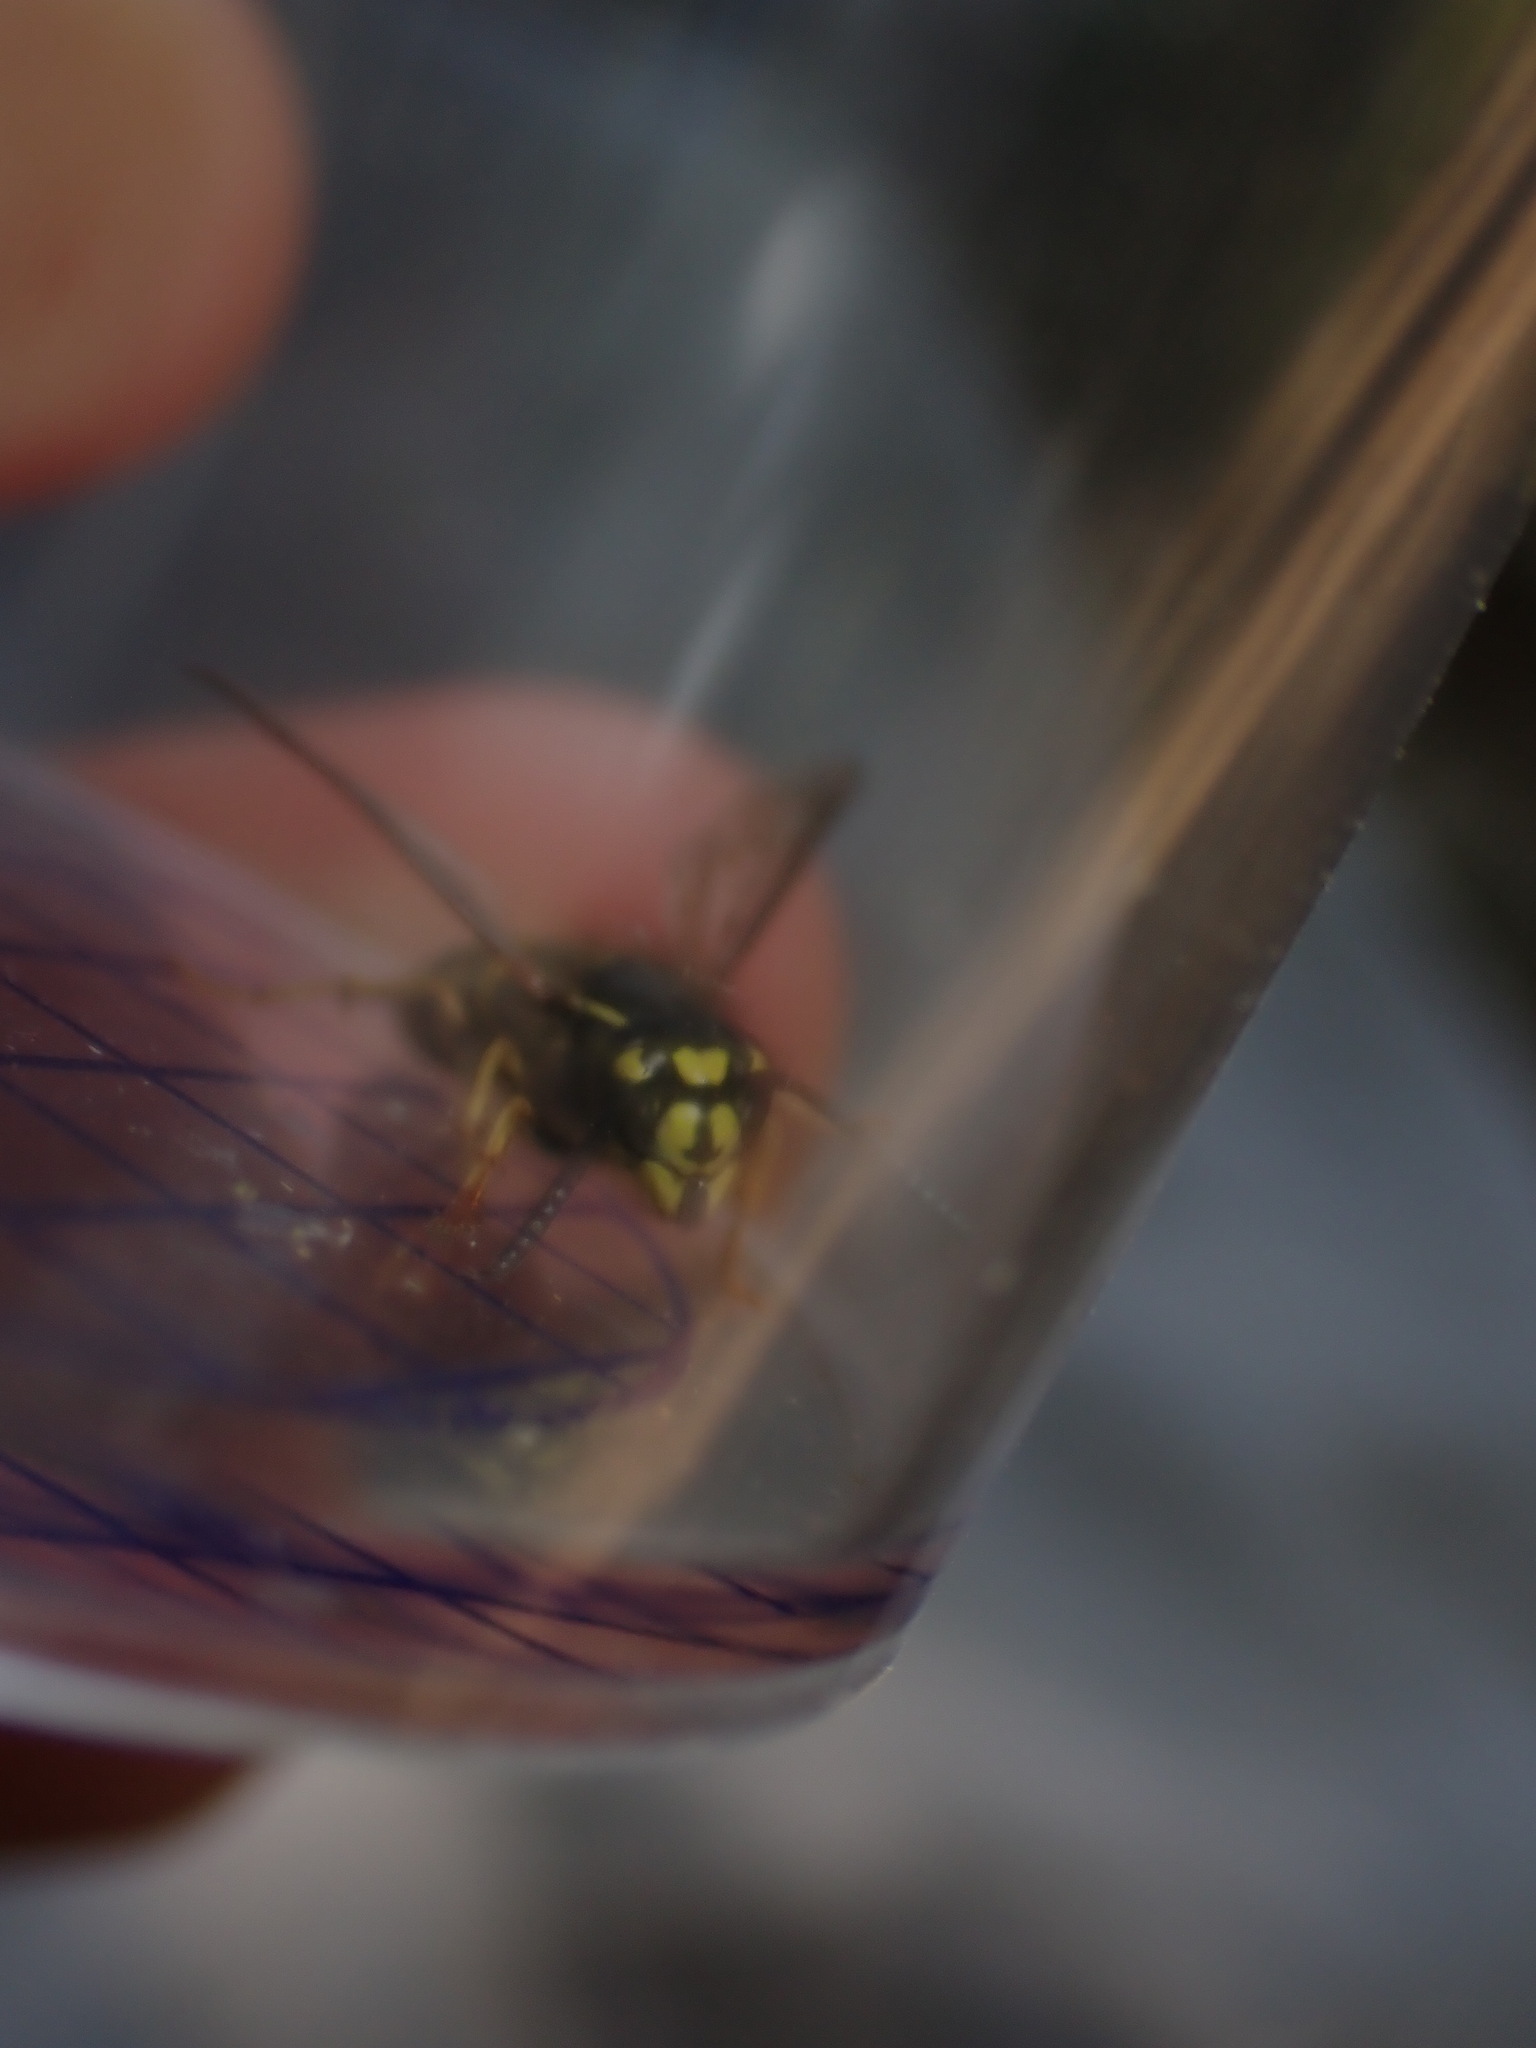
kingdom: Animalia
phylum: Arthropoda
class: Insecta
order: Hymenoptera
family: Vespidae
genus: Vespula
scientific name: Vespula vulgaris
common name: Common wasp
